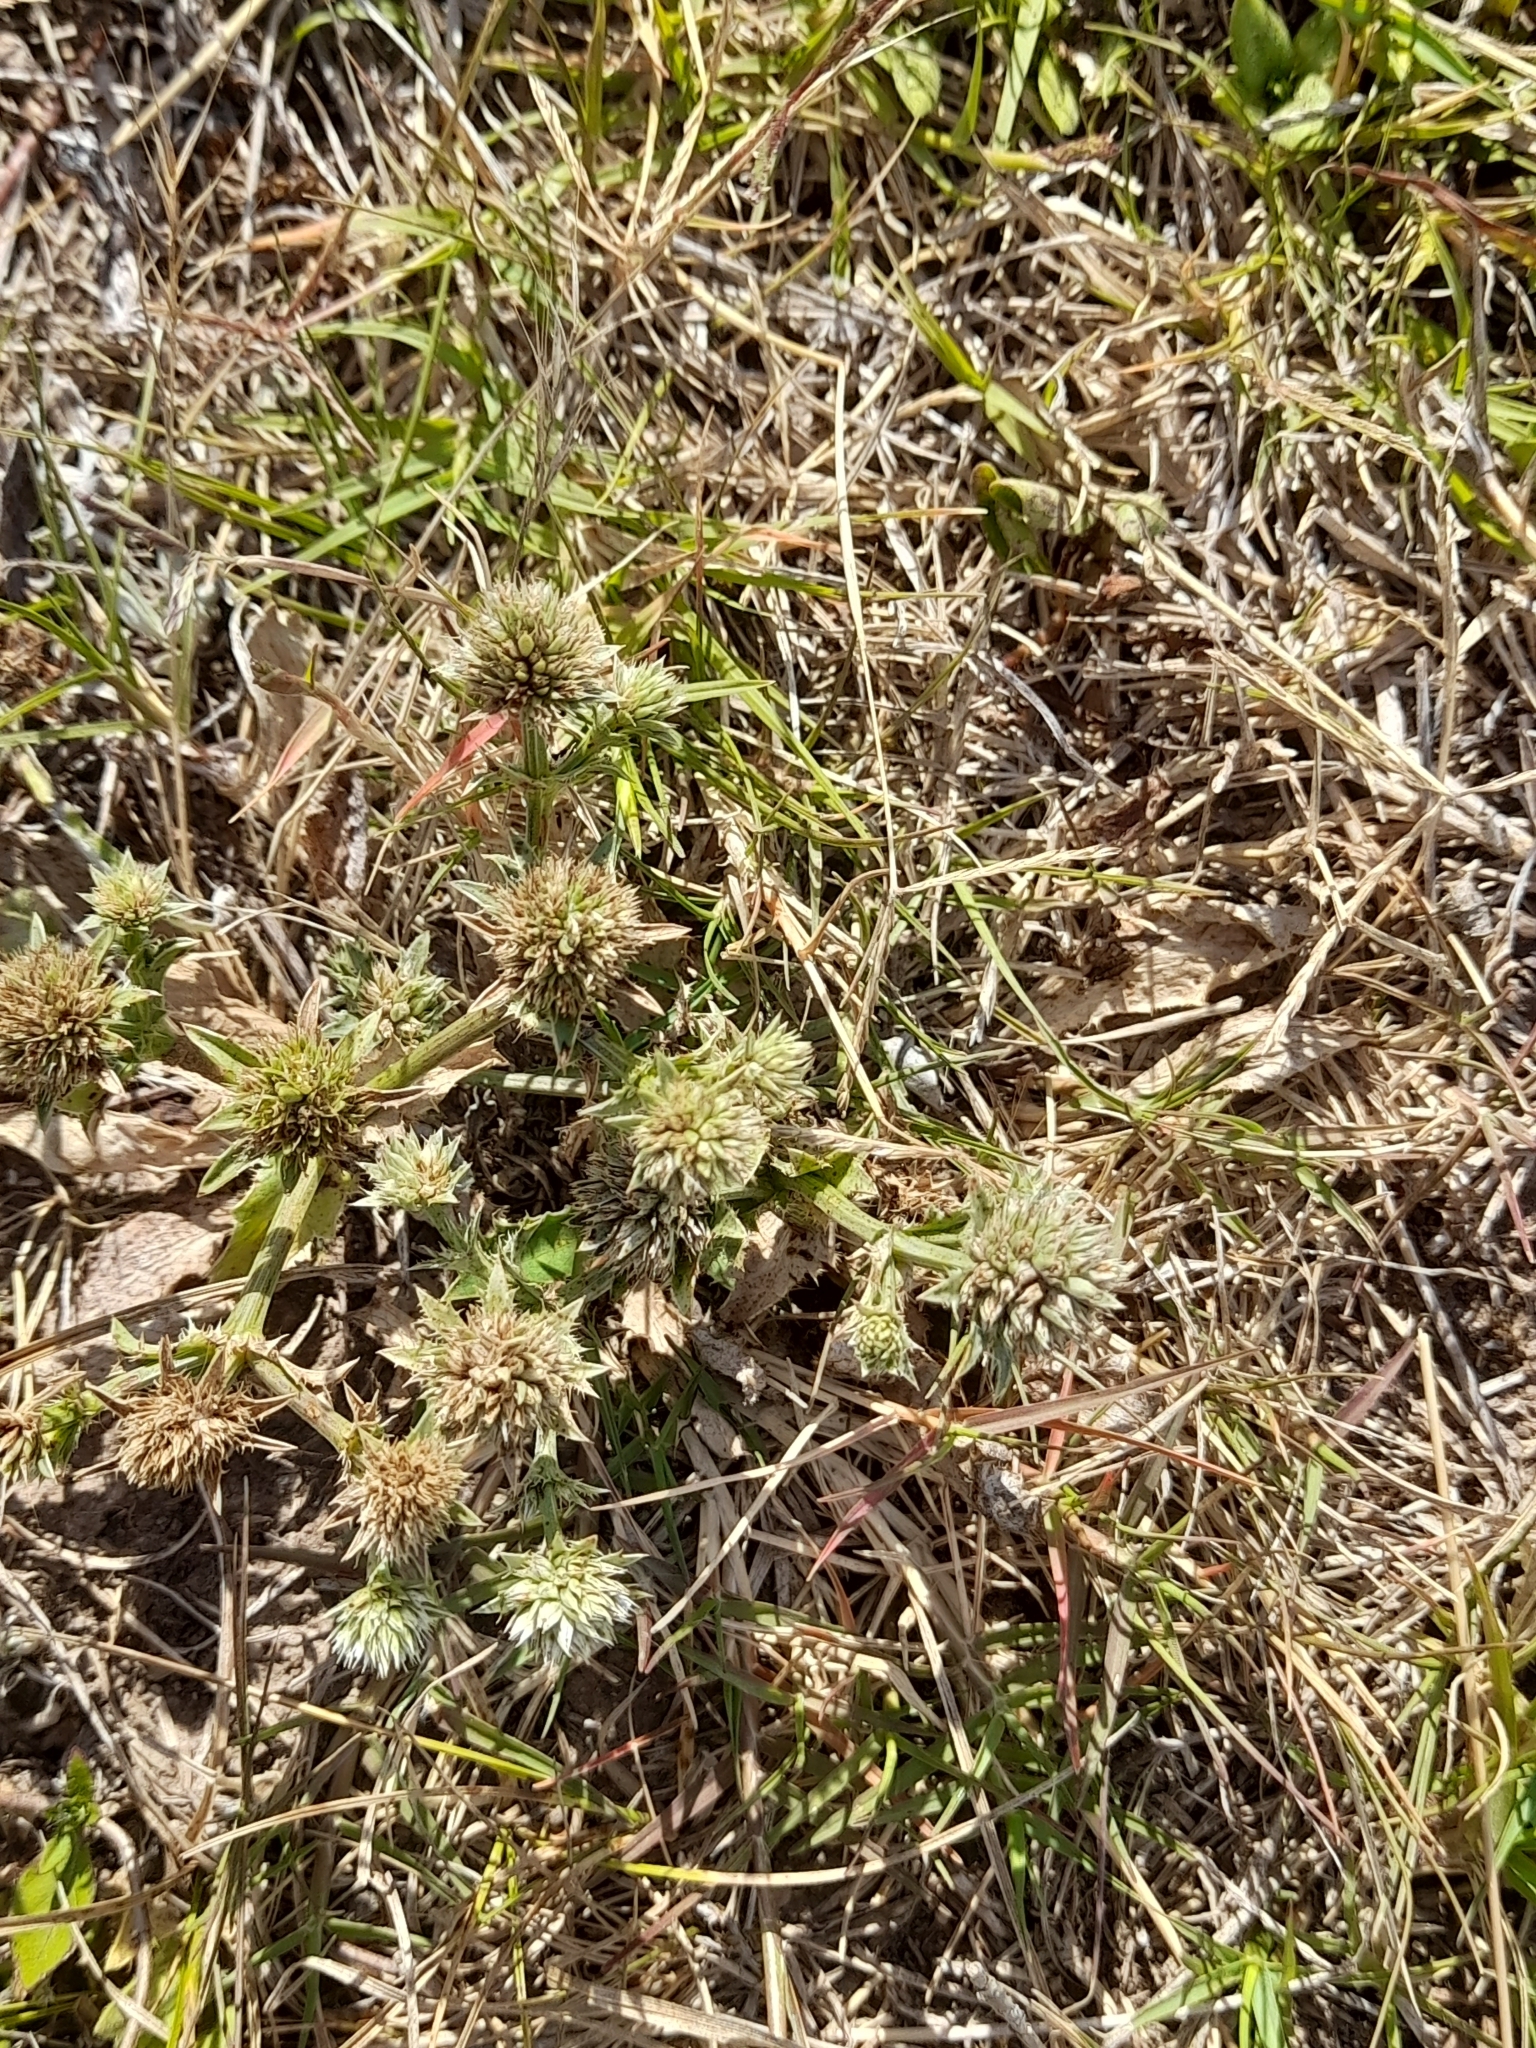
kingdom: Plantae
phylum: Tracheophyta
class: Magnoliopsida
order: Apiales
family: Apiaceae
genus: Eryngium
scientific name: Eryngium nudicaule
